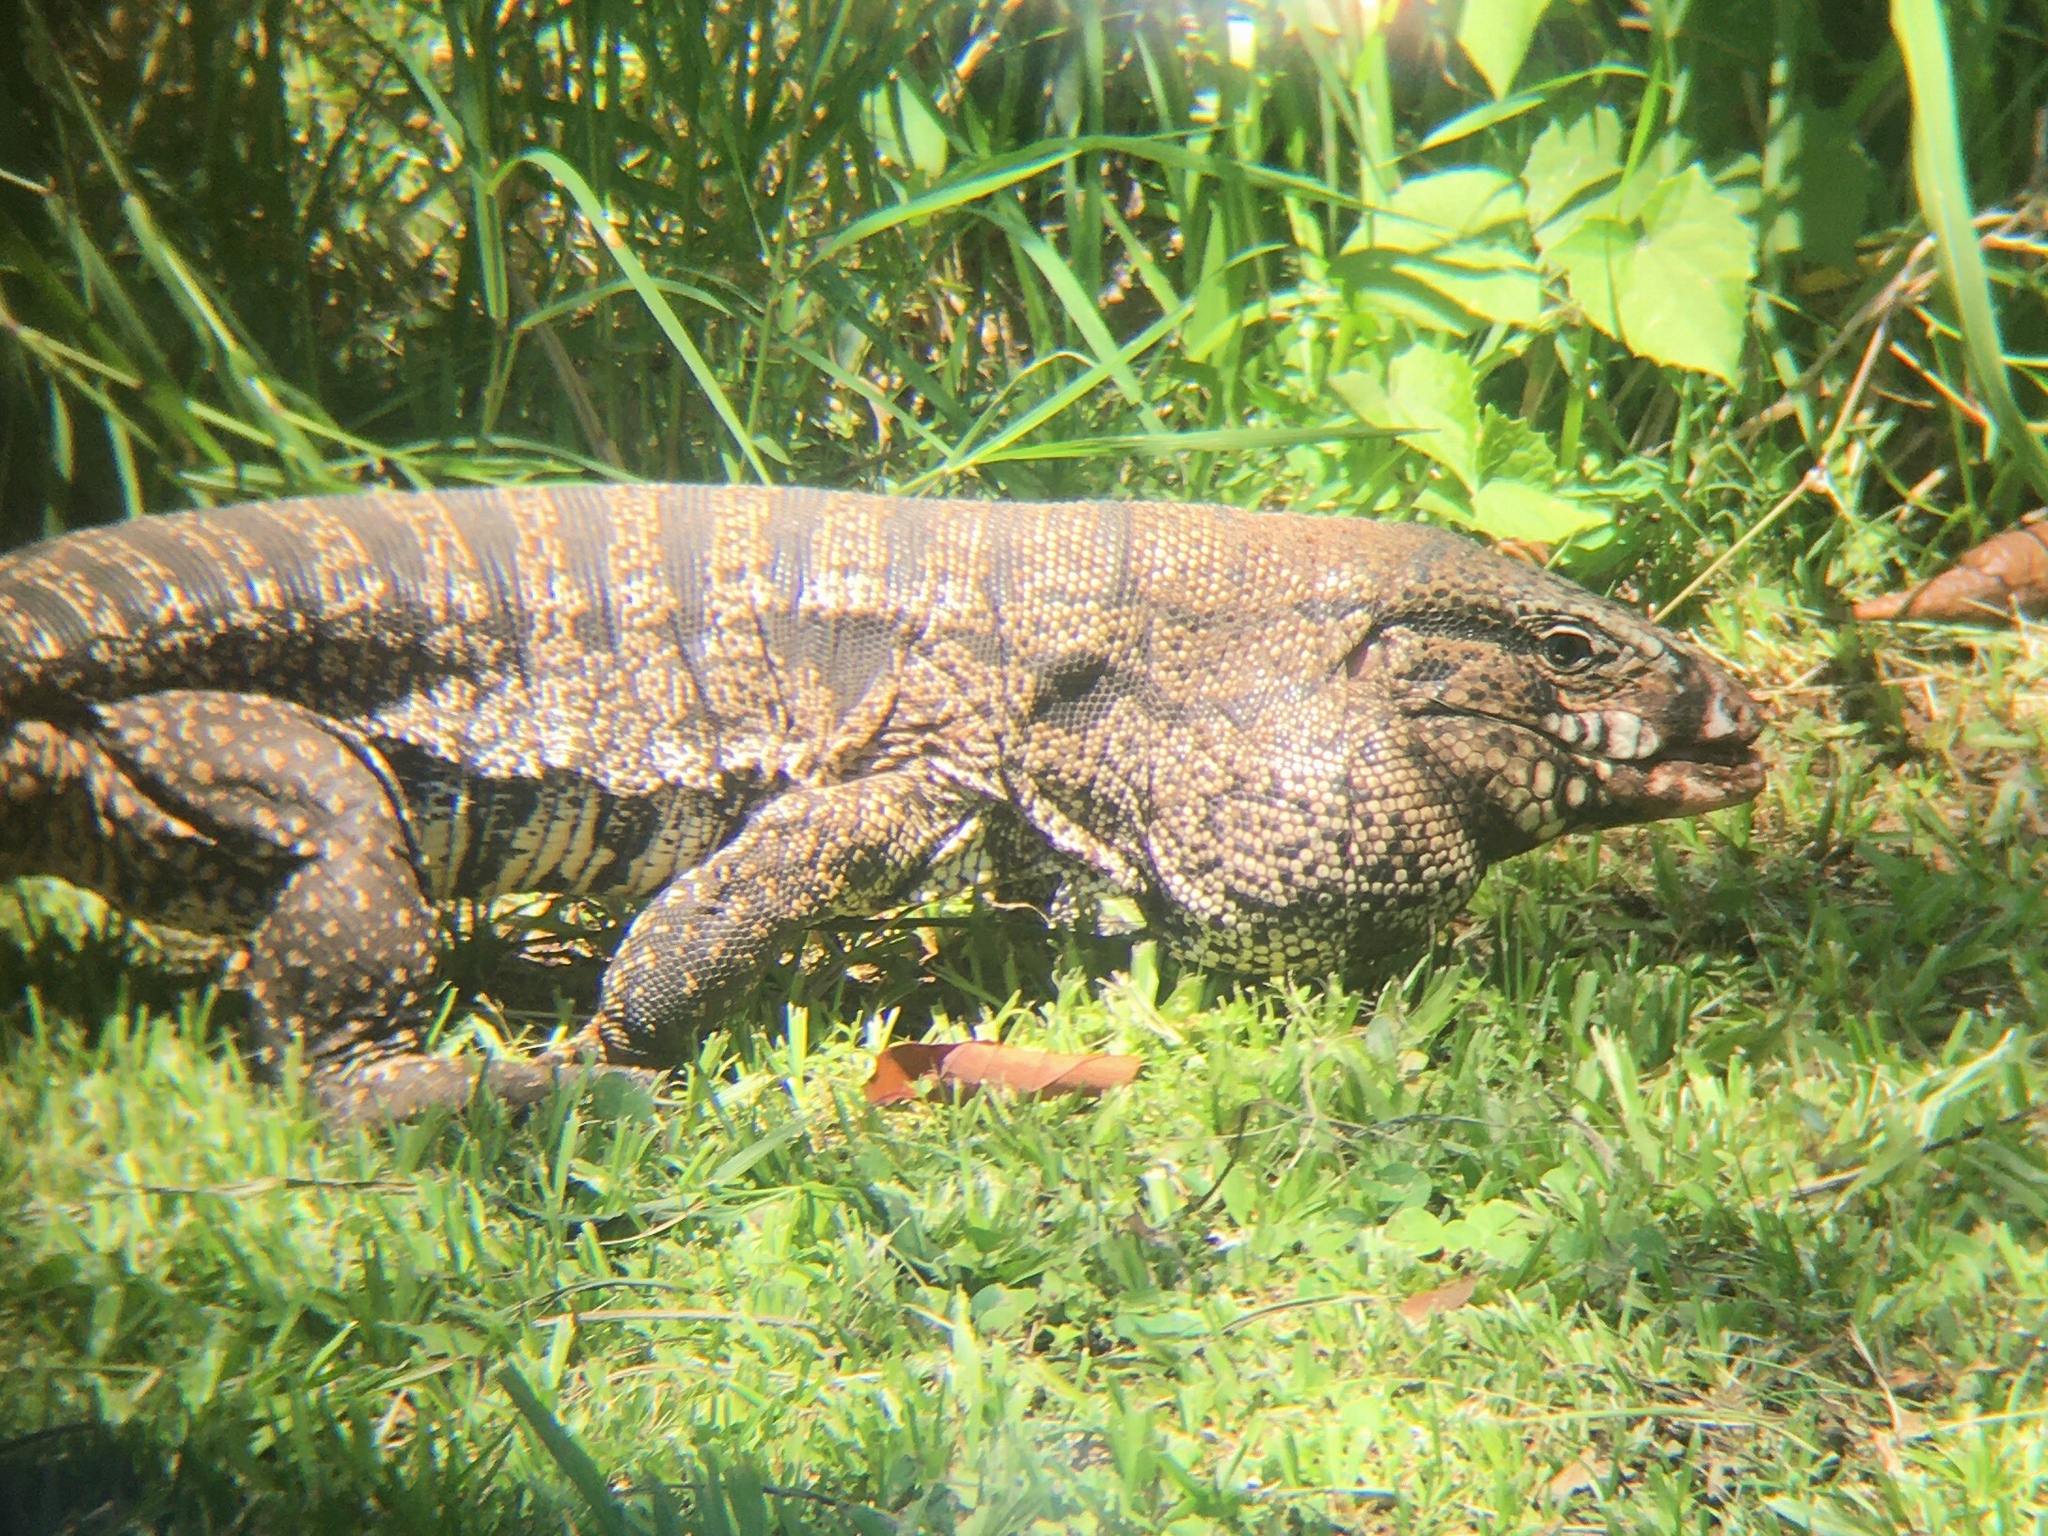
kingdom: Animalia
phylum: Chordata
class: Squamata
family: Teiidae
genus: Salvator
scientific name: Salvator merianae
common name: Argentine black and white tegu
